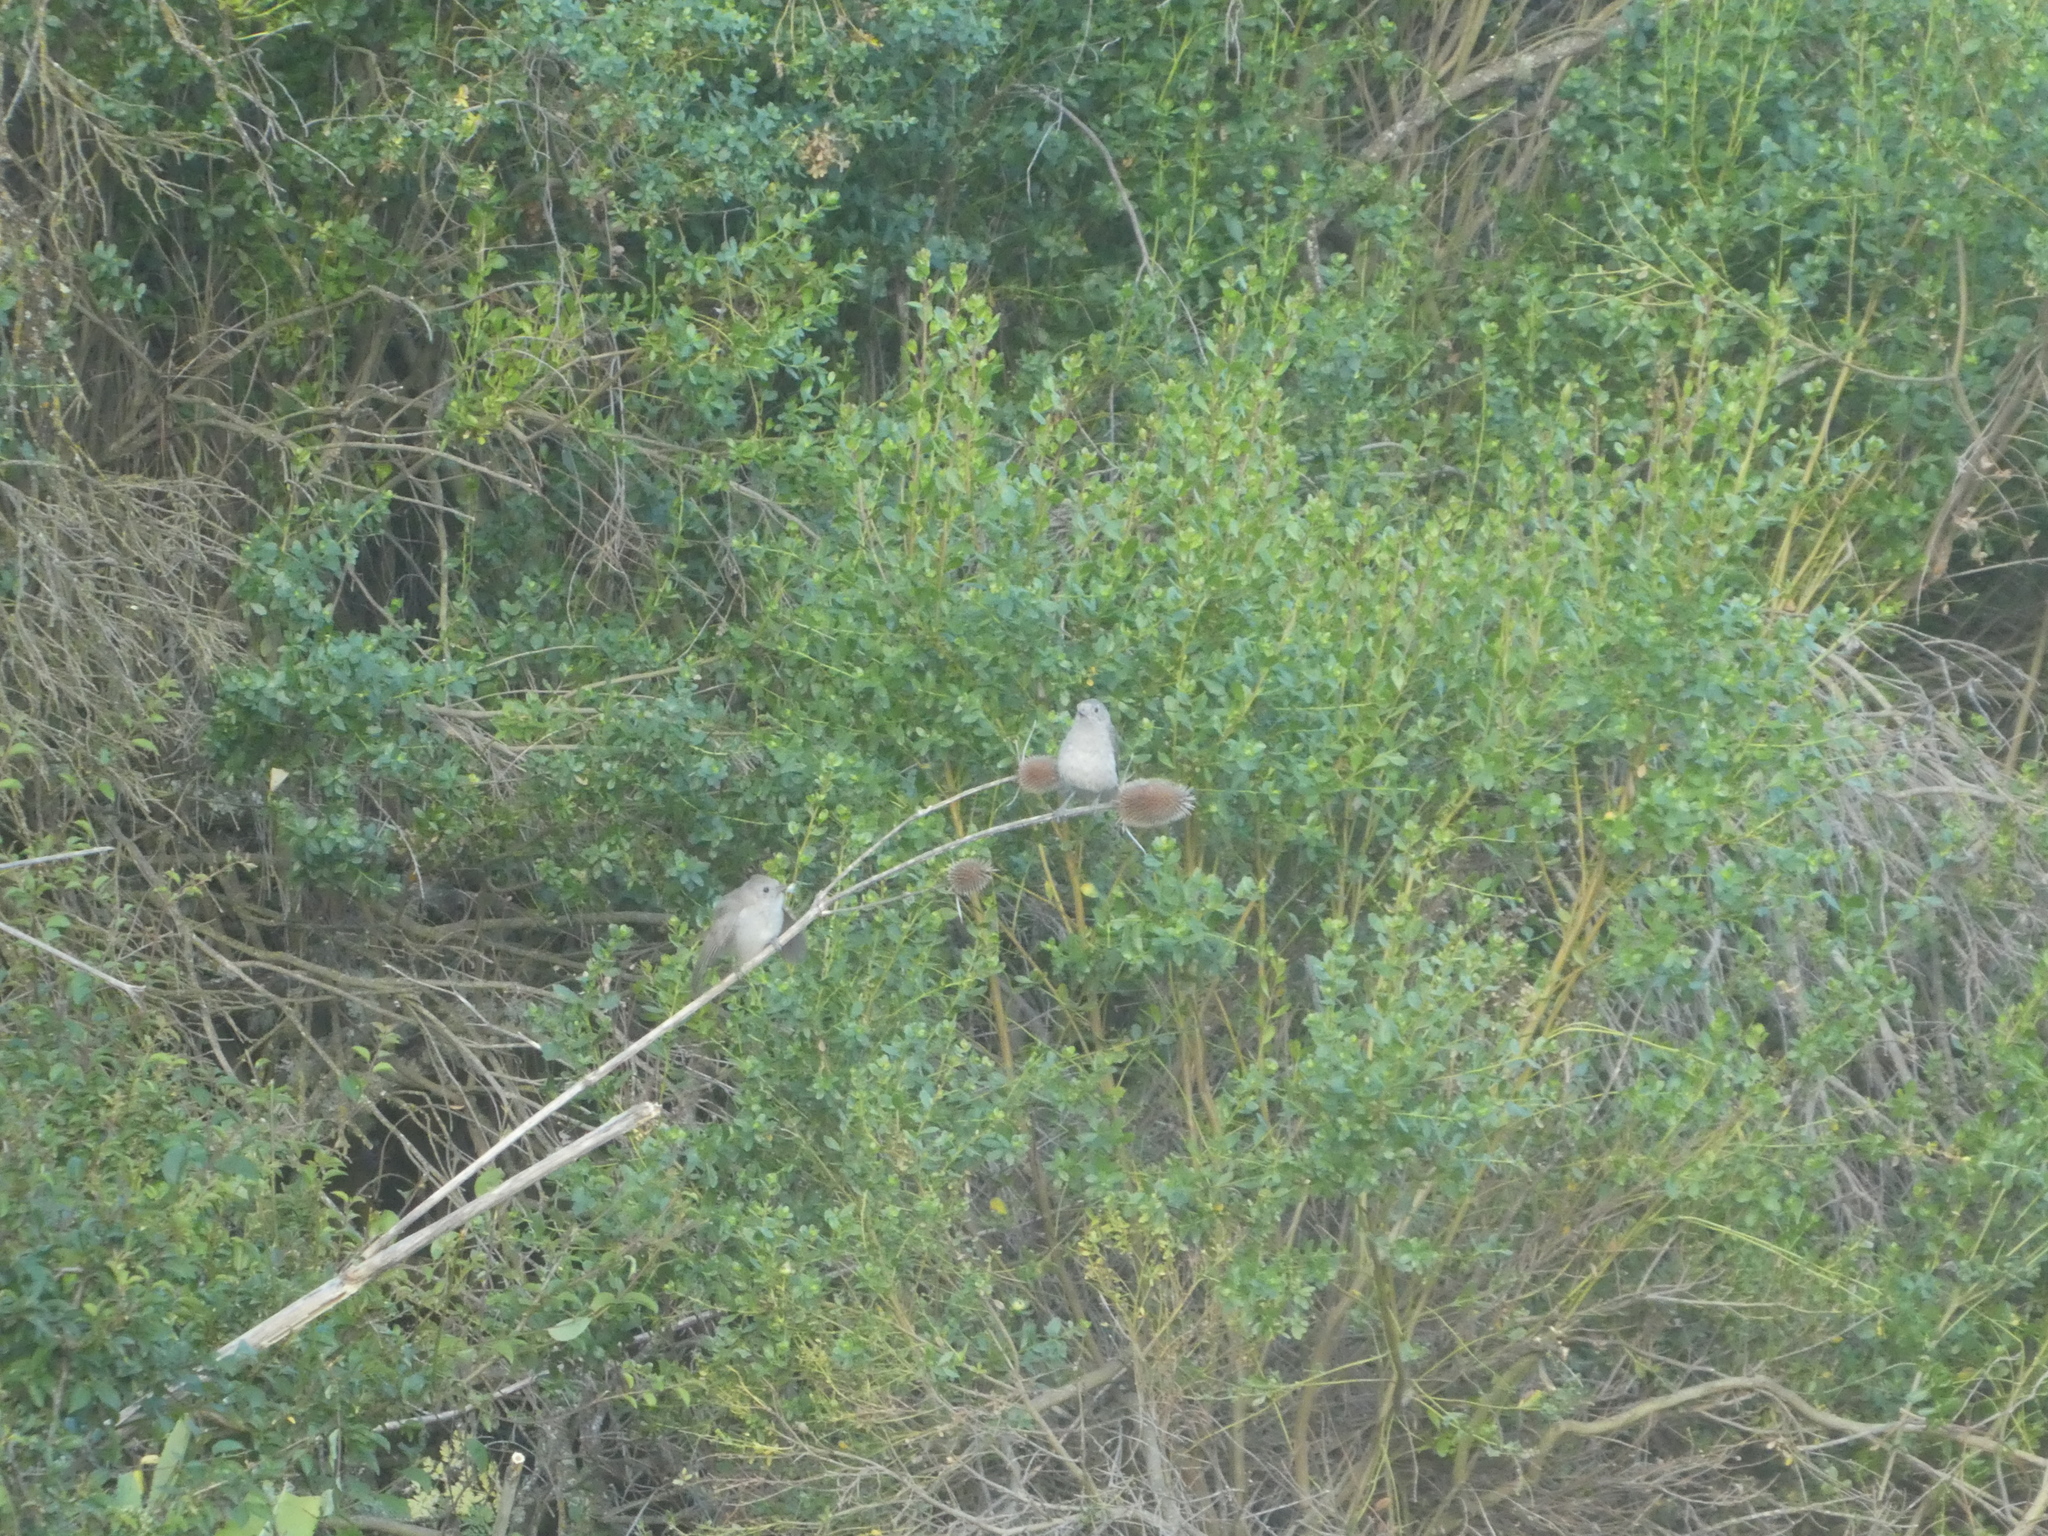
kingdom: Animalia
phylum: Chordata
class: Aves
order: Passeriformes
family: Aegithalidae
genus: Psaltriparus
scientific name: Psaltriparus minimus
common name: American bushtit
